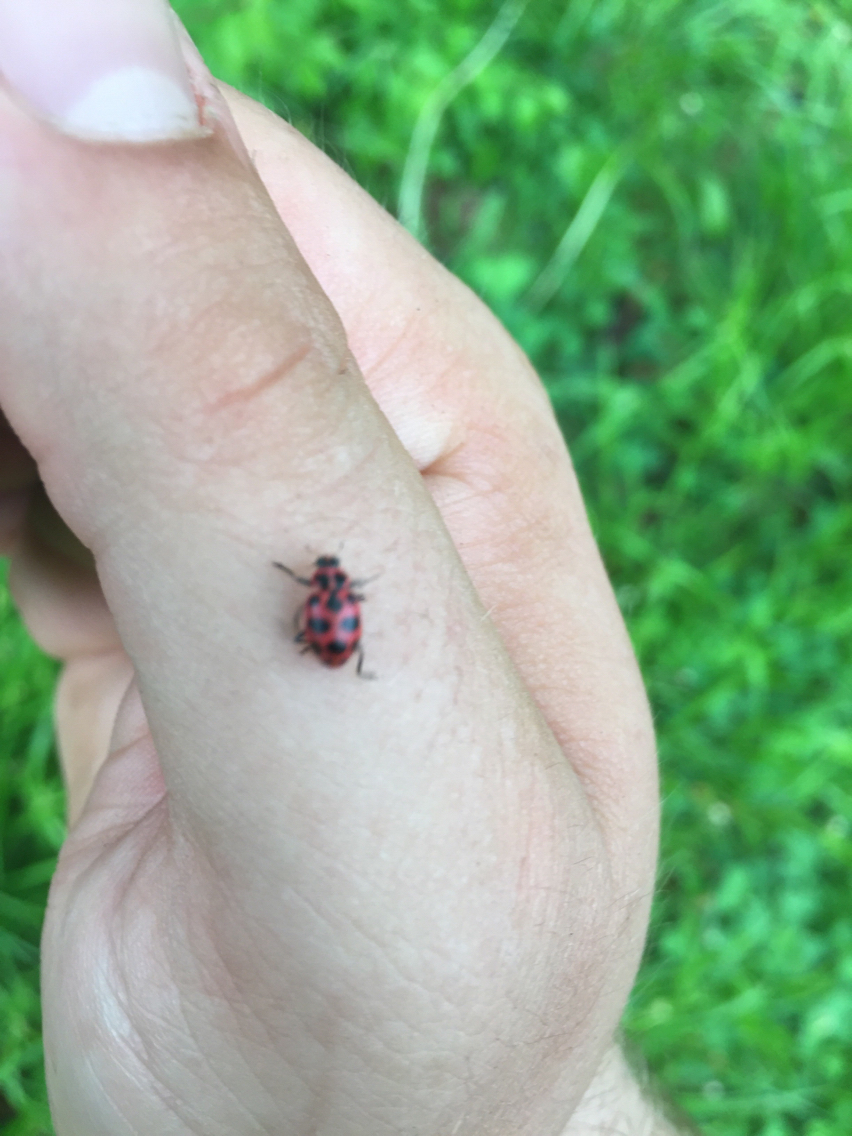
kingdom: Animalia
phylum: Arthropoda
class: Insecta
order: Coleoptera
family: Coccinellidae
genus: Coleomegilla
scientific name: Coleomegilla maculata
